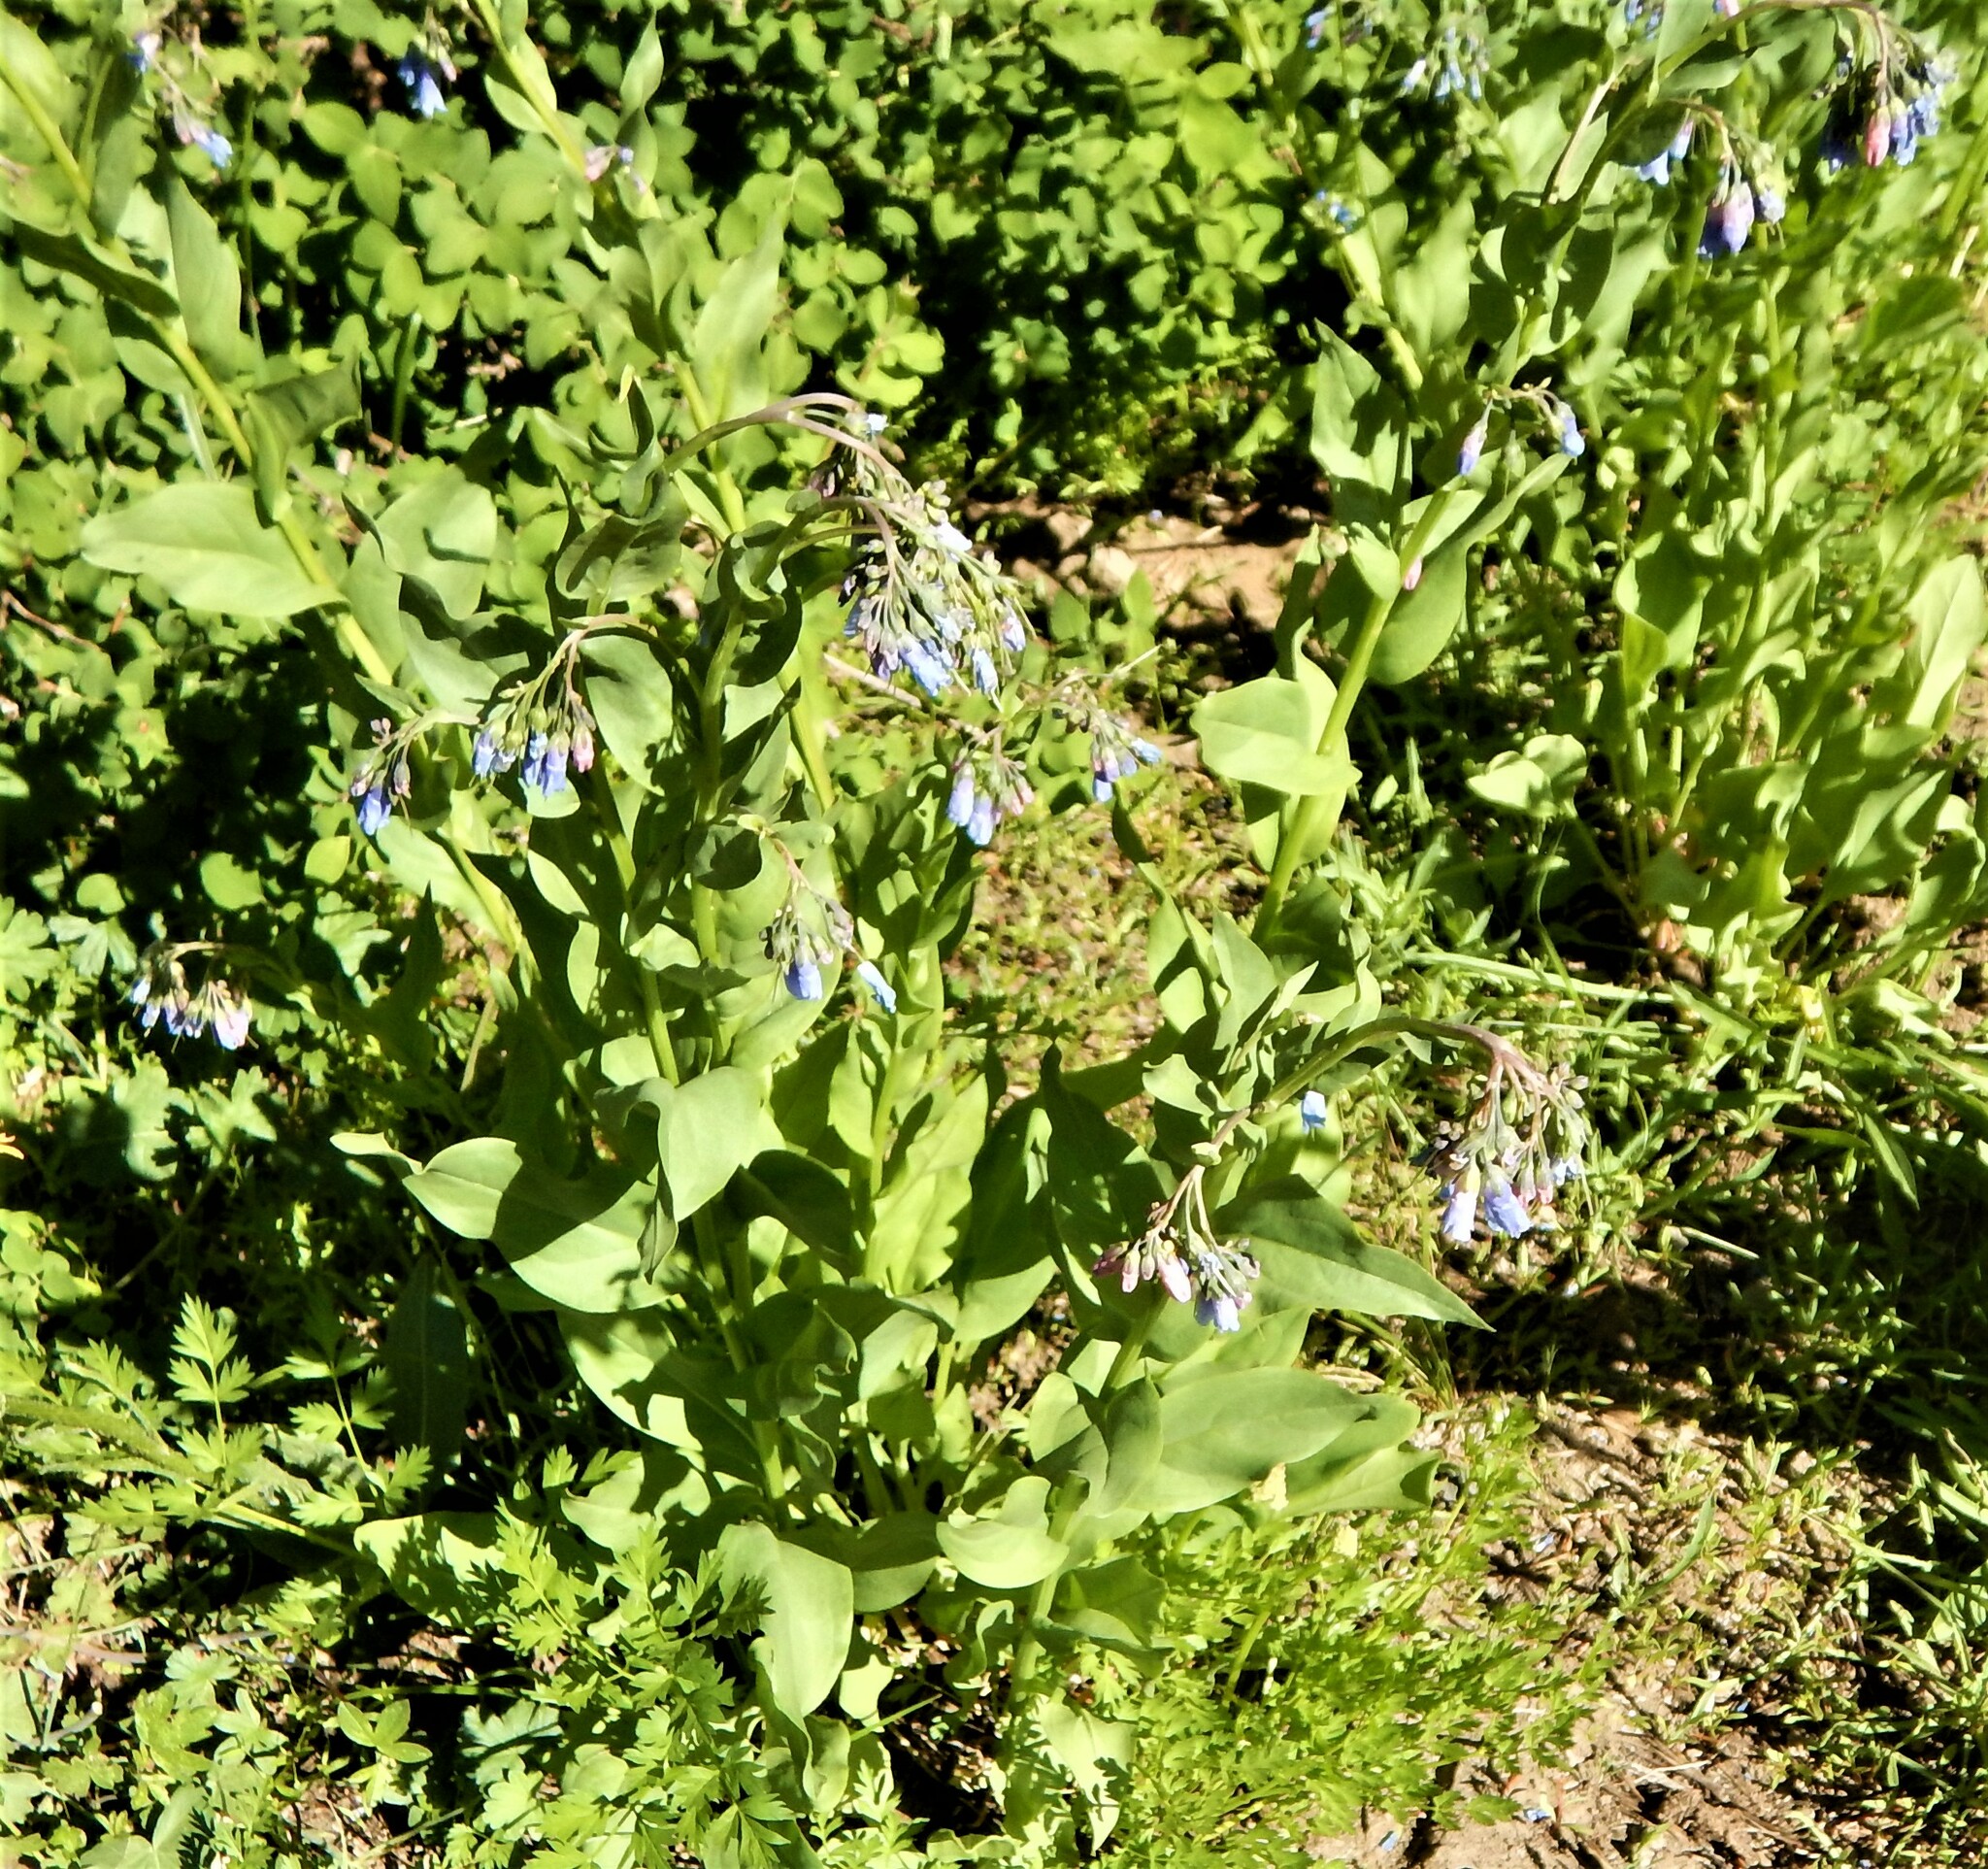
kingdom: Plantae
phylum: Tracheophyta
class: Magnoliopsida
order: Boraginales
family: Boraginaceae
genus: Mertensia
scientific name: Mertensia ciliata
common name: Tall chiming-bells
